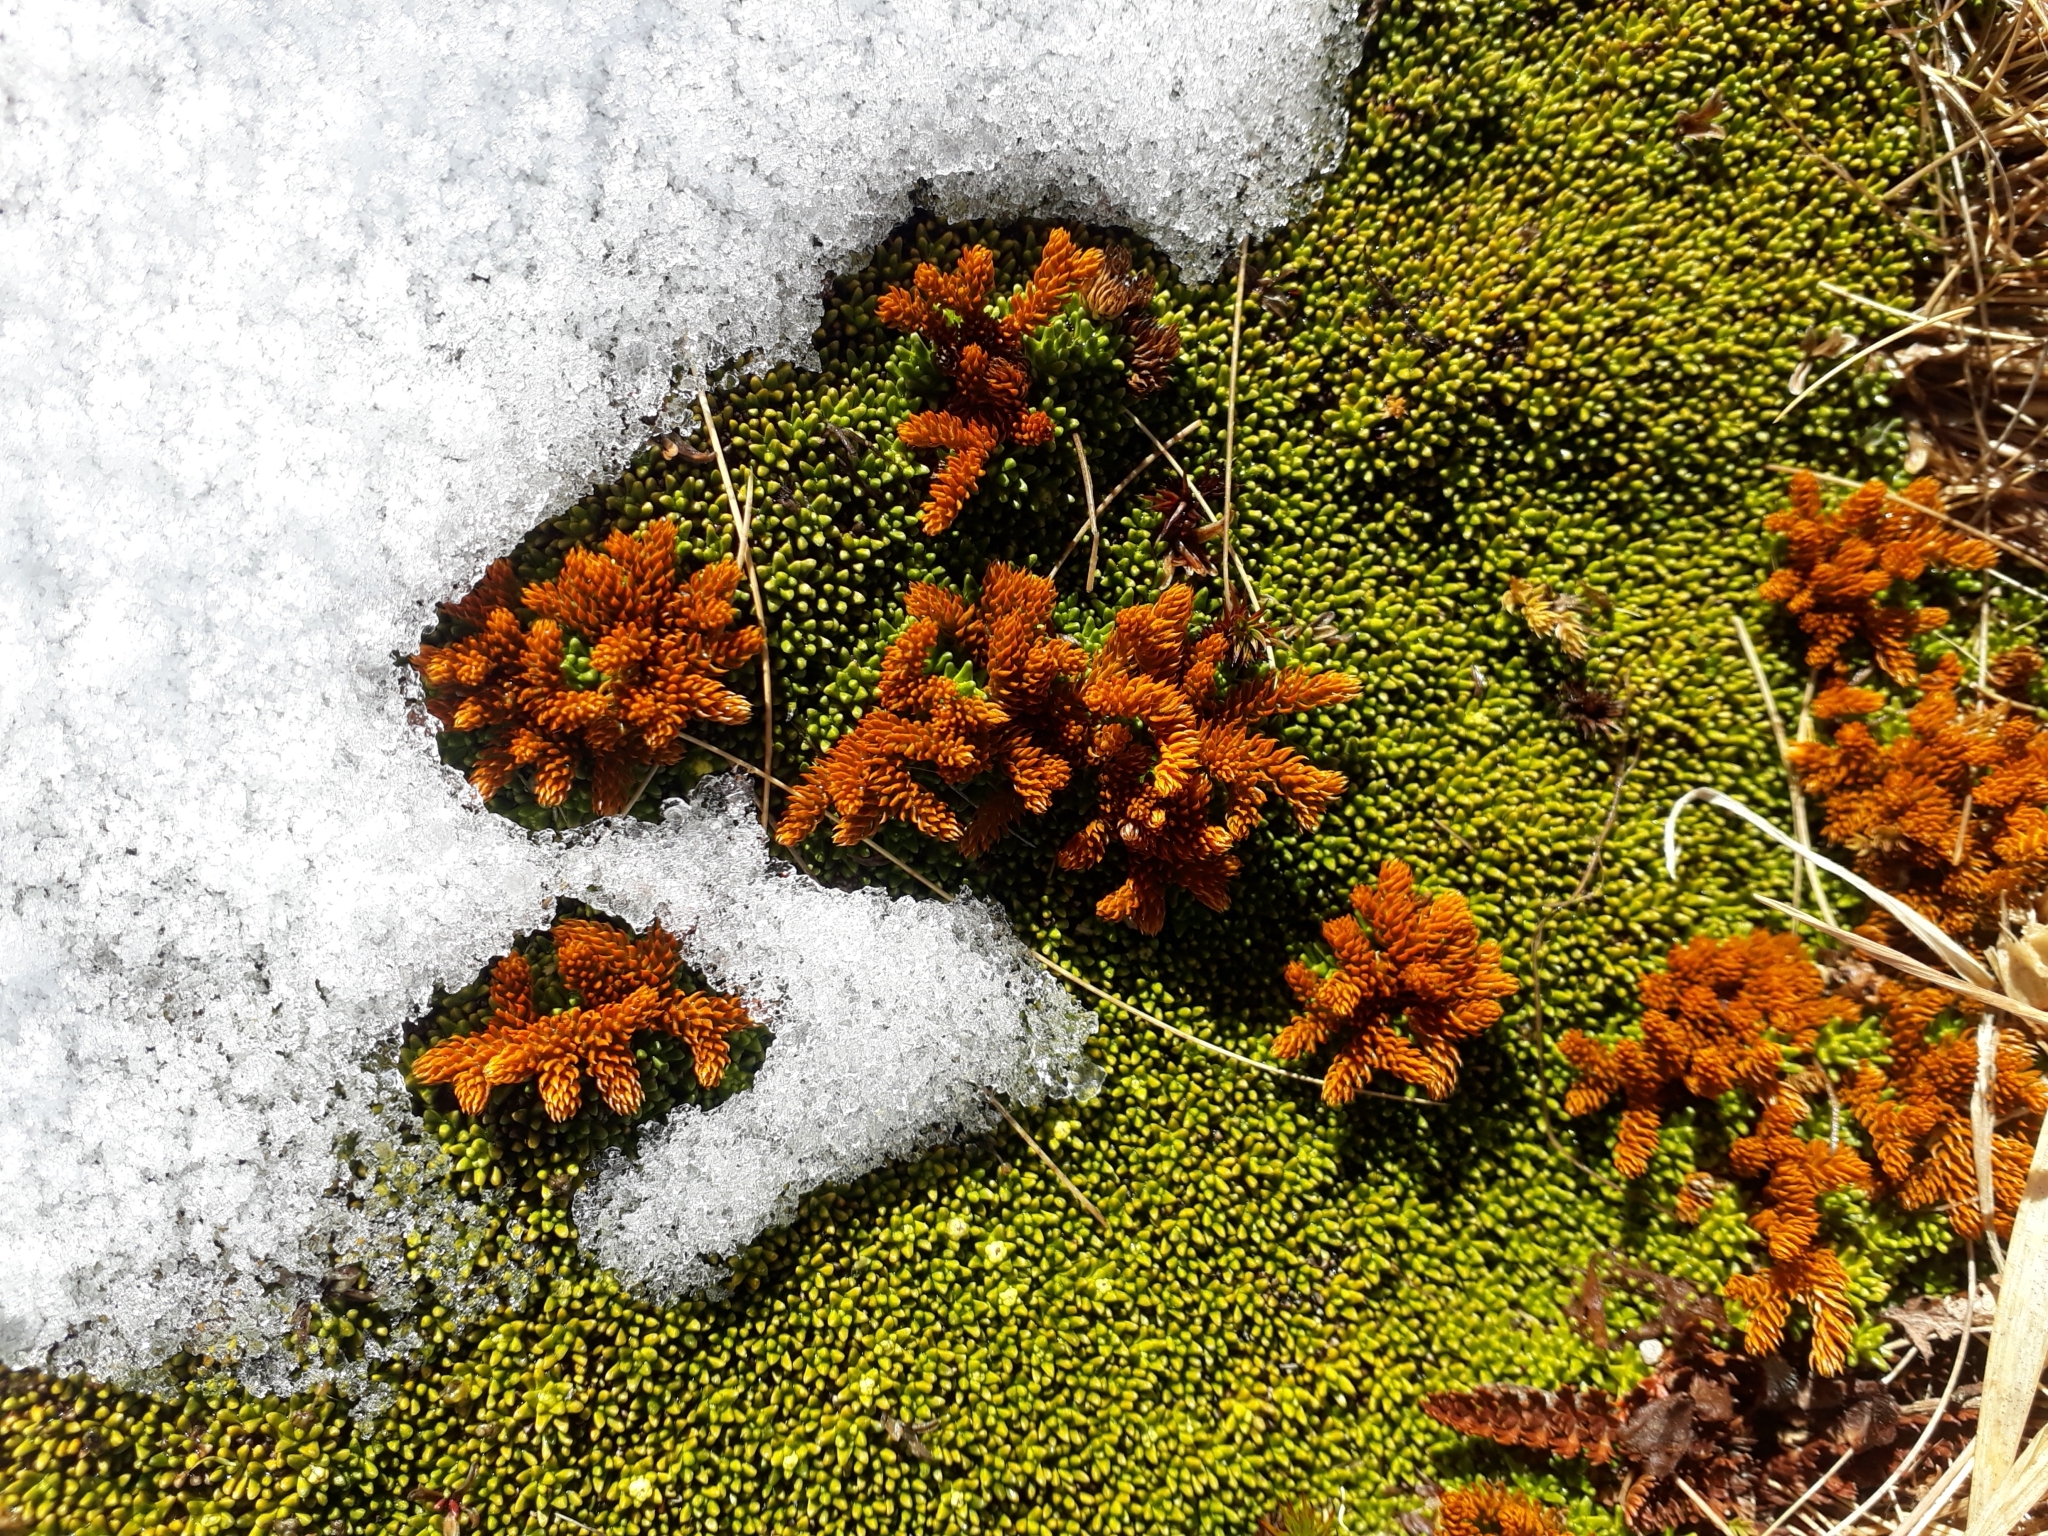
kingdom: Plantae
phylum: Tracheophyta
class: Lycopodiopsida
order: Lycopodiales
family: Lycopodiaceae
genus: Austrolycopodium
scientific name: Austrolycopodium fastigiatum
